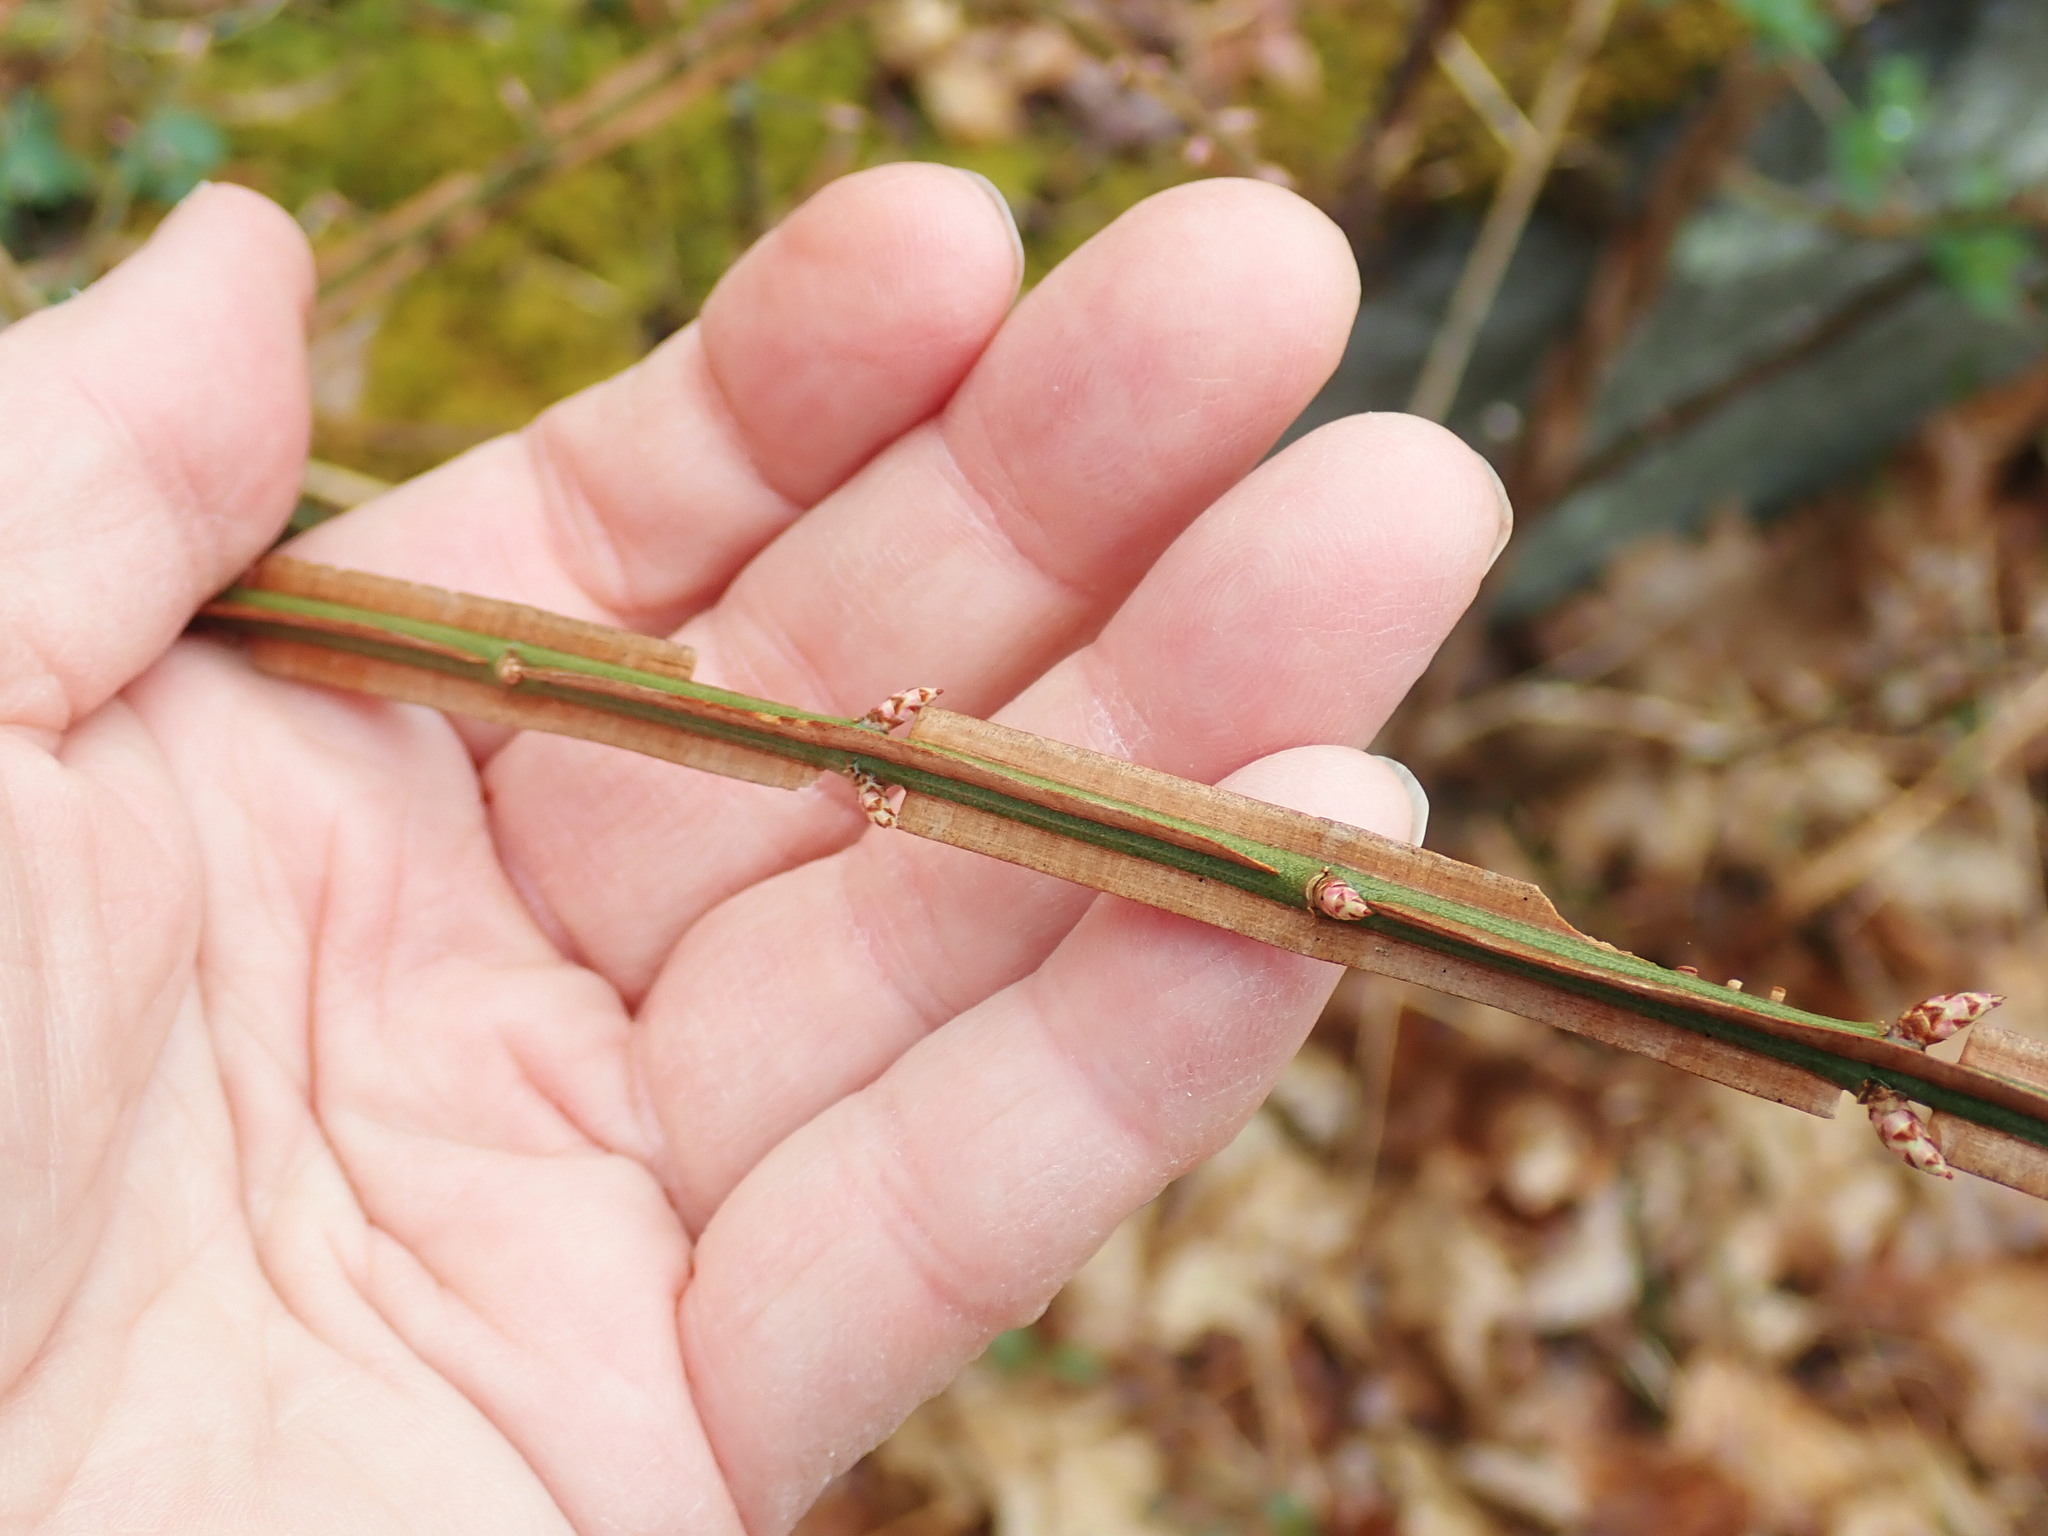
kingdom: Plantae
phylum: Tracheophyta
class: Magnoliopsida
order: Celastrales
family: Celastraceae
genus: Euonymus
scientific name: Euonymus alatus
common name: Winged euonymus
